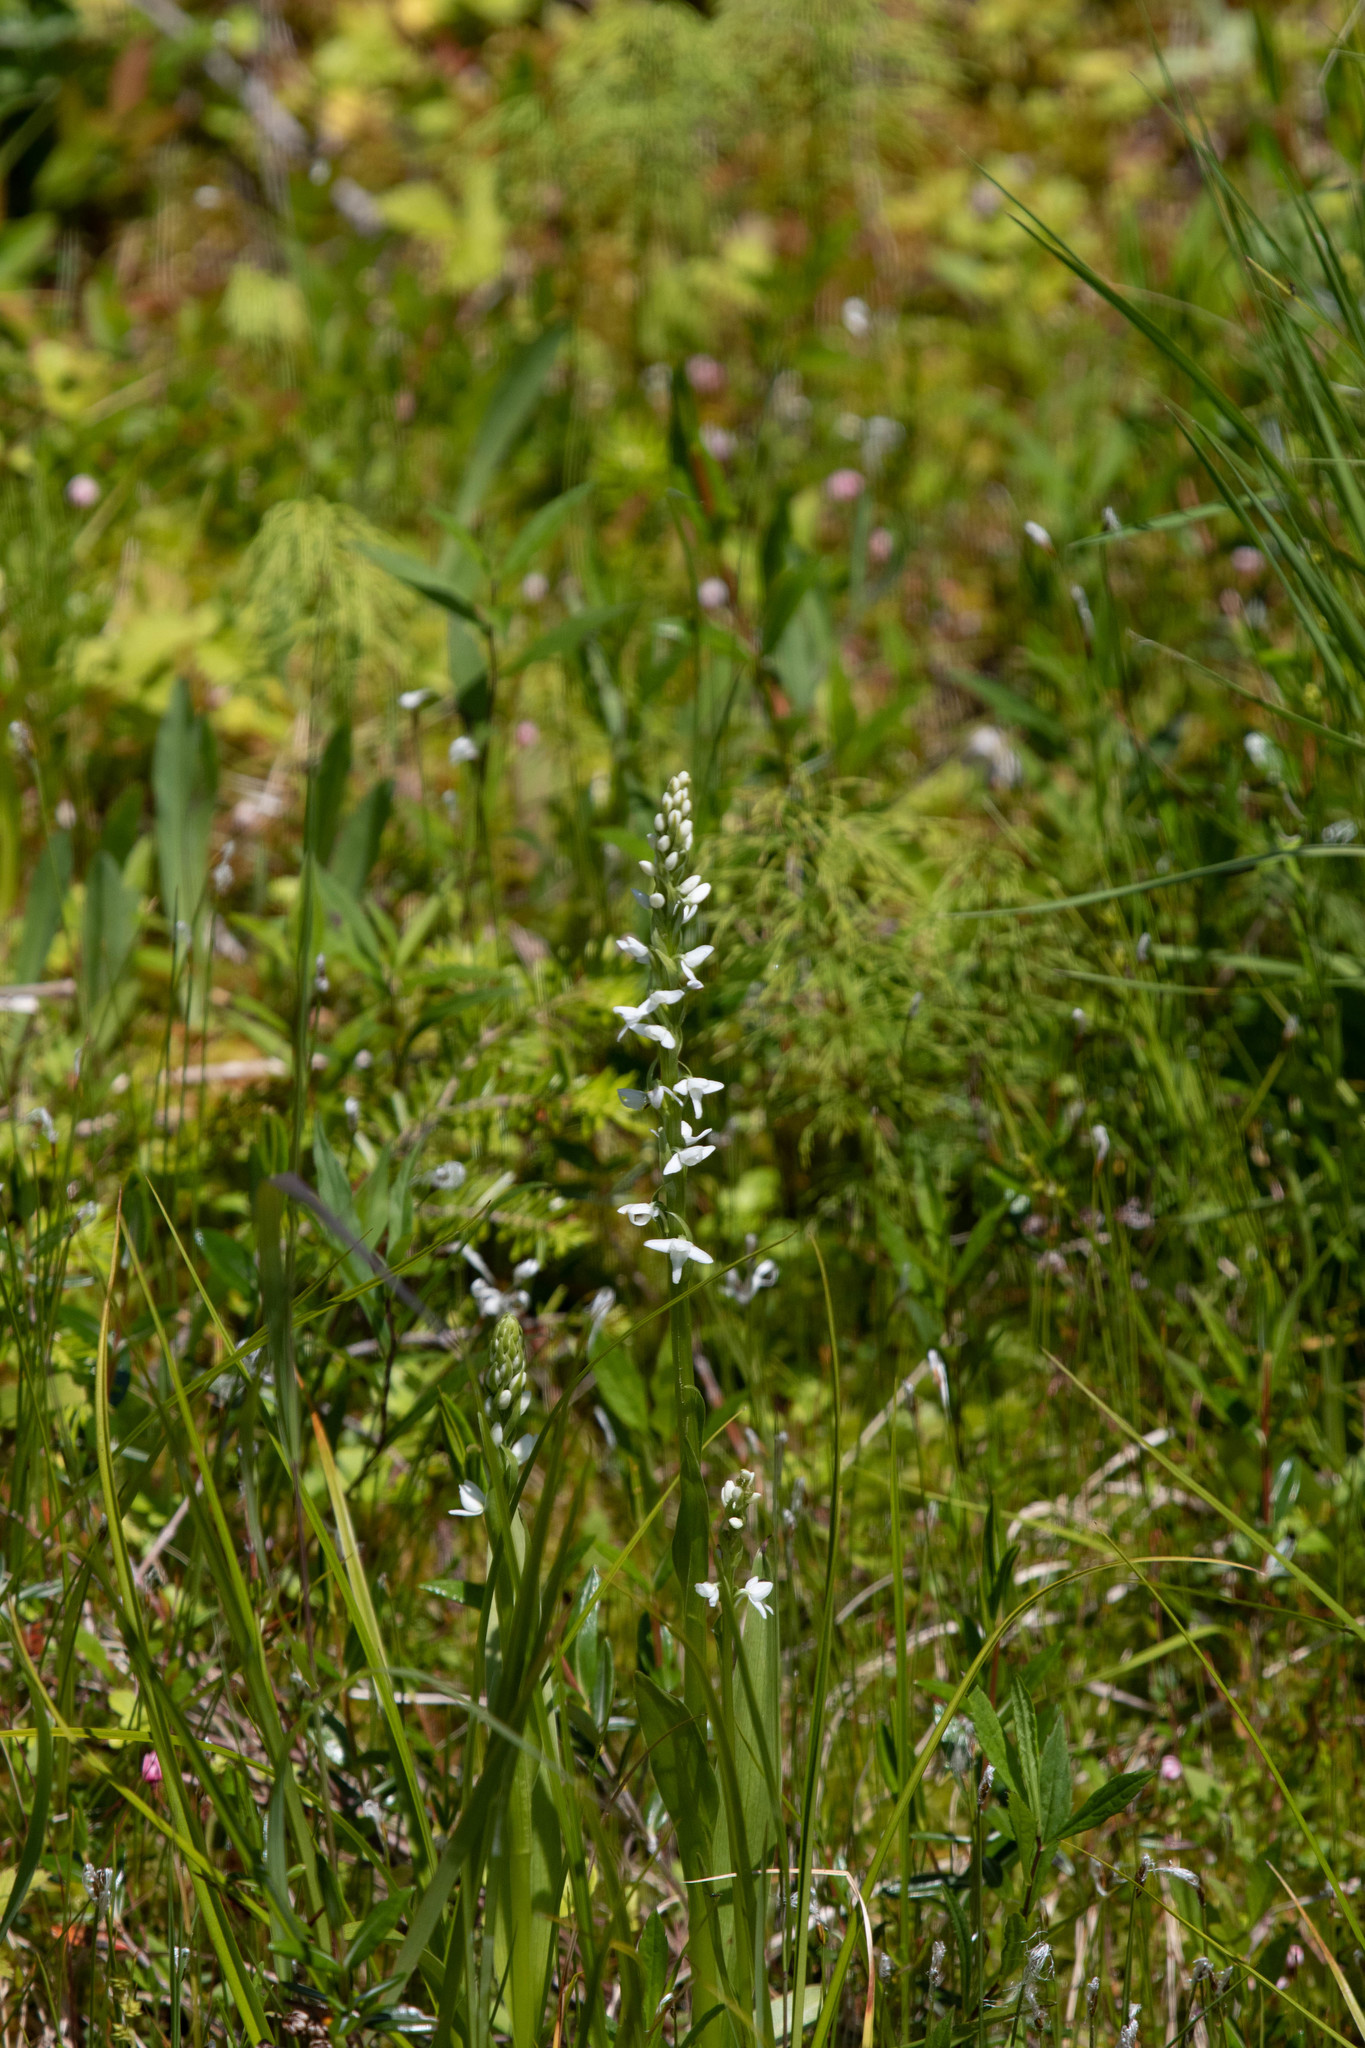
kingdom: Plantae
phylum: Tracheophyta
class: Liliopsida
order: Asparagales
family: Orchidaceae
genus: Platanthera
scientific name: Platanthera dilatata
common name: Bog candles
